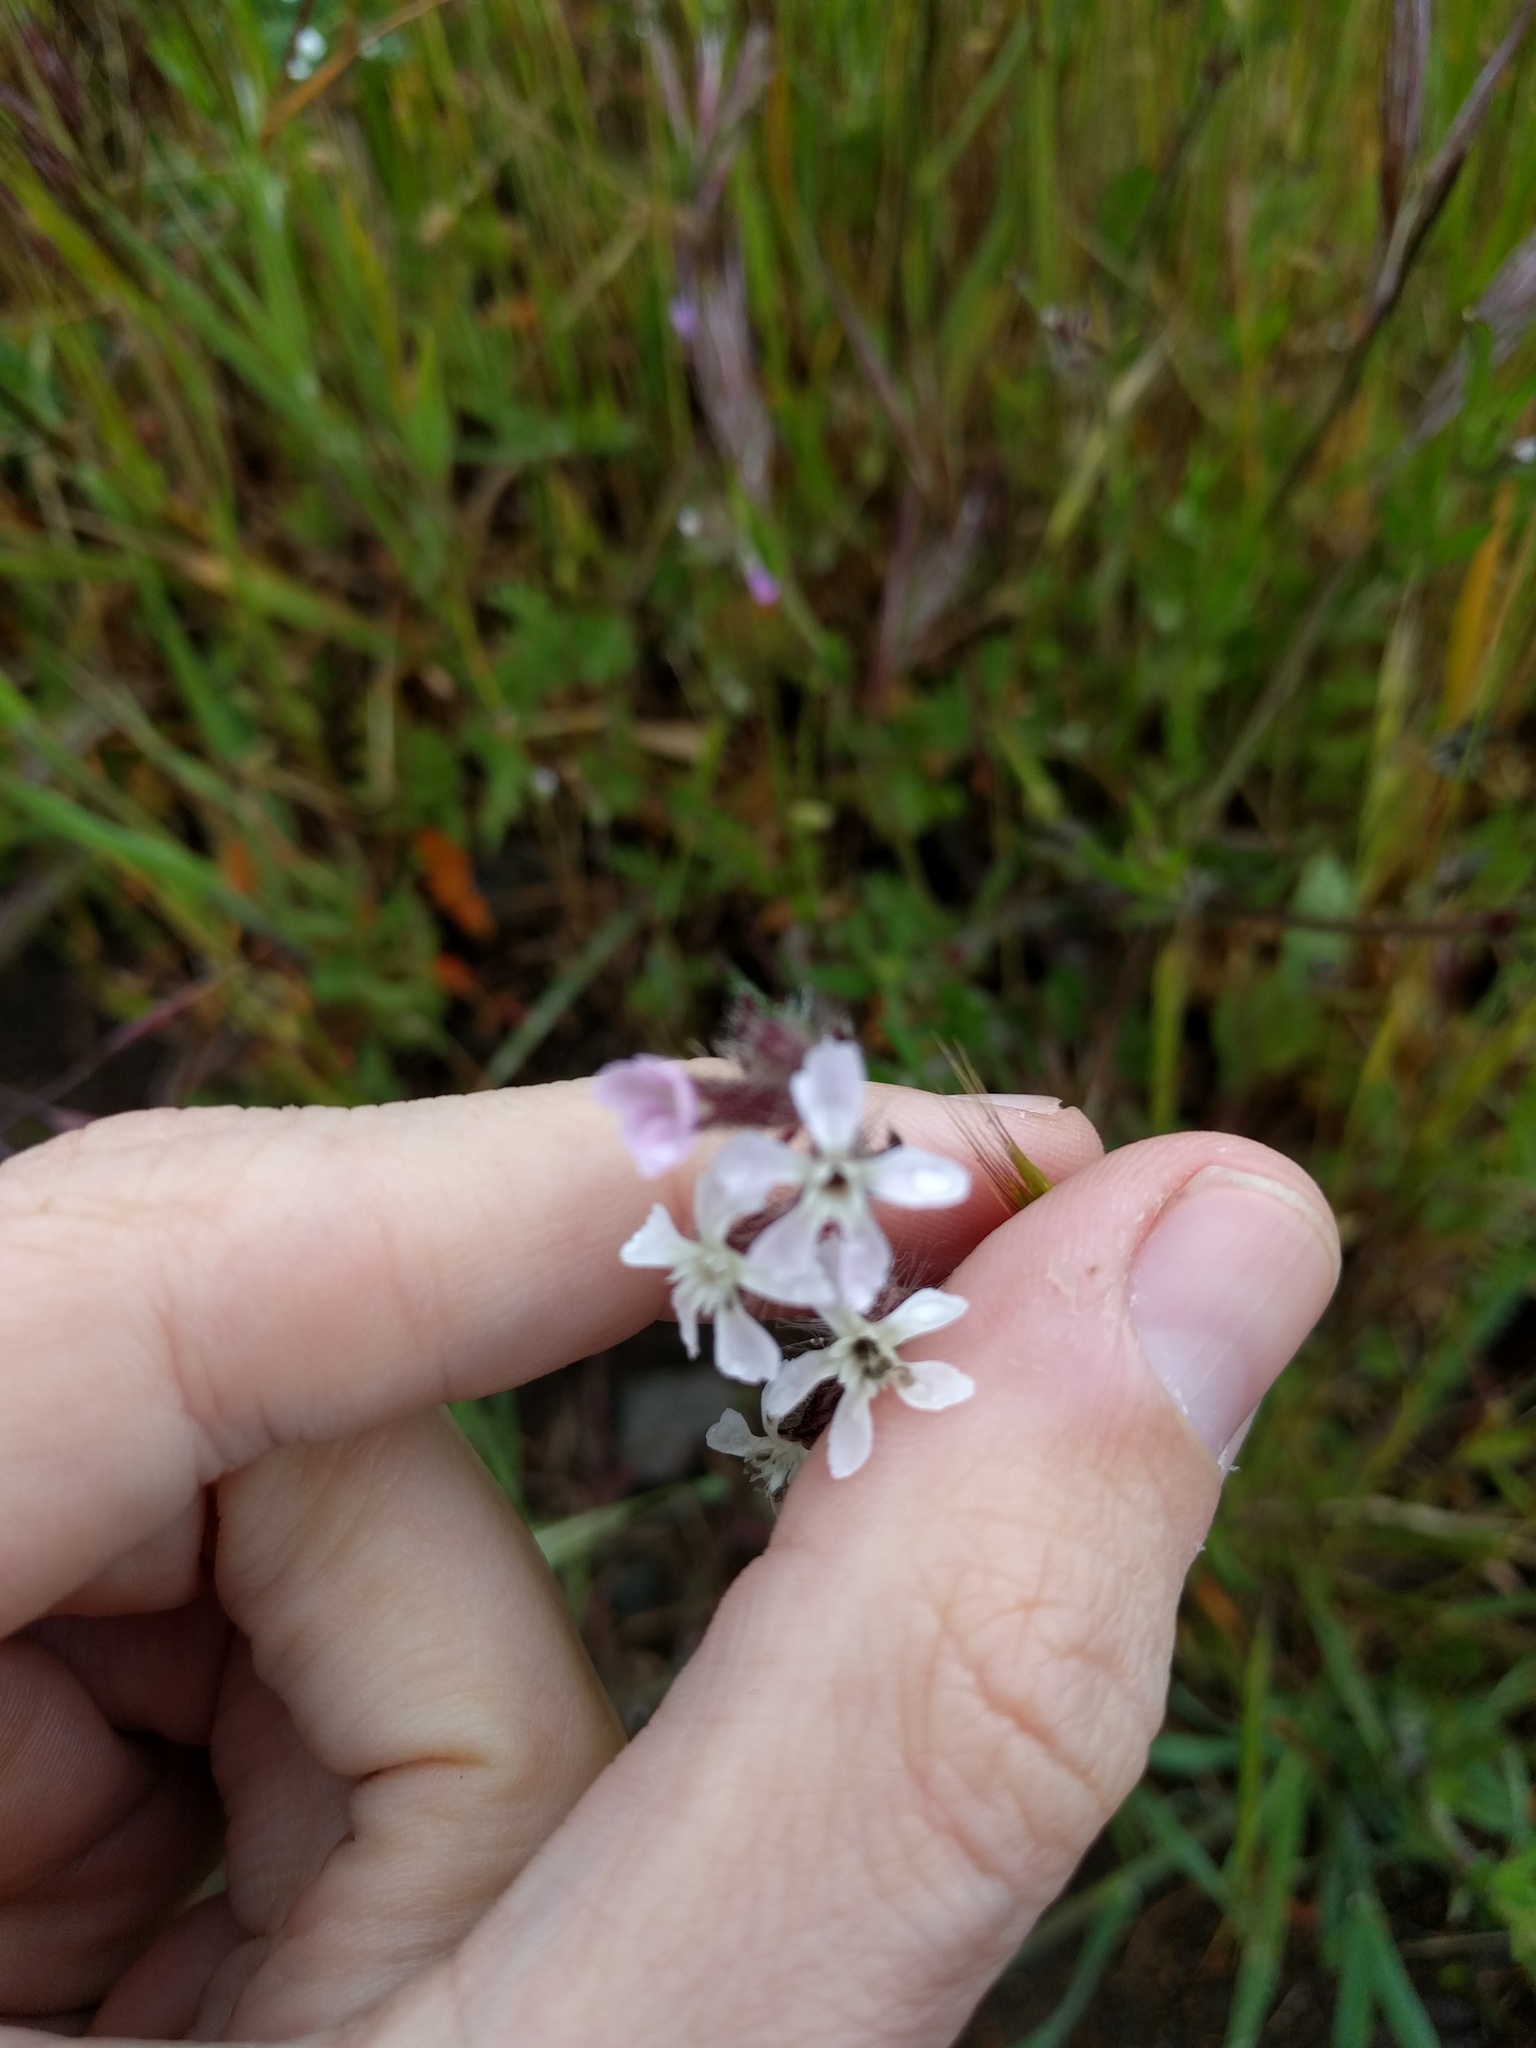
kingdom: Plantae
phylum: Tracheophyta
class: Magnoliopsida
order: Caryophyllales
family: Caryophyllaceae
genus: Silene
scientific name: Silene gallica
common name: Small-flowered catchfly
